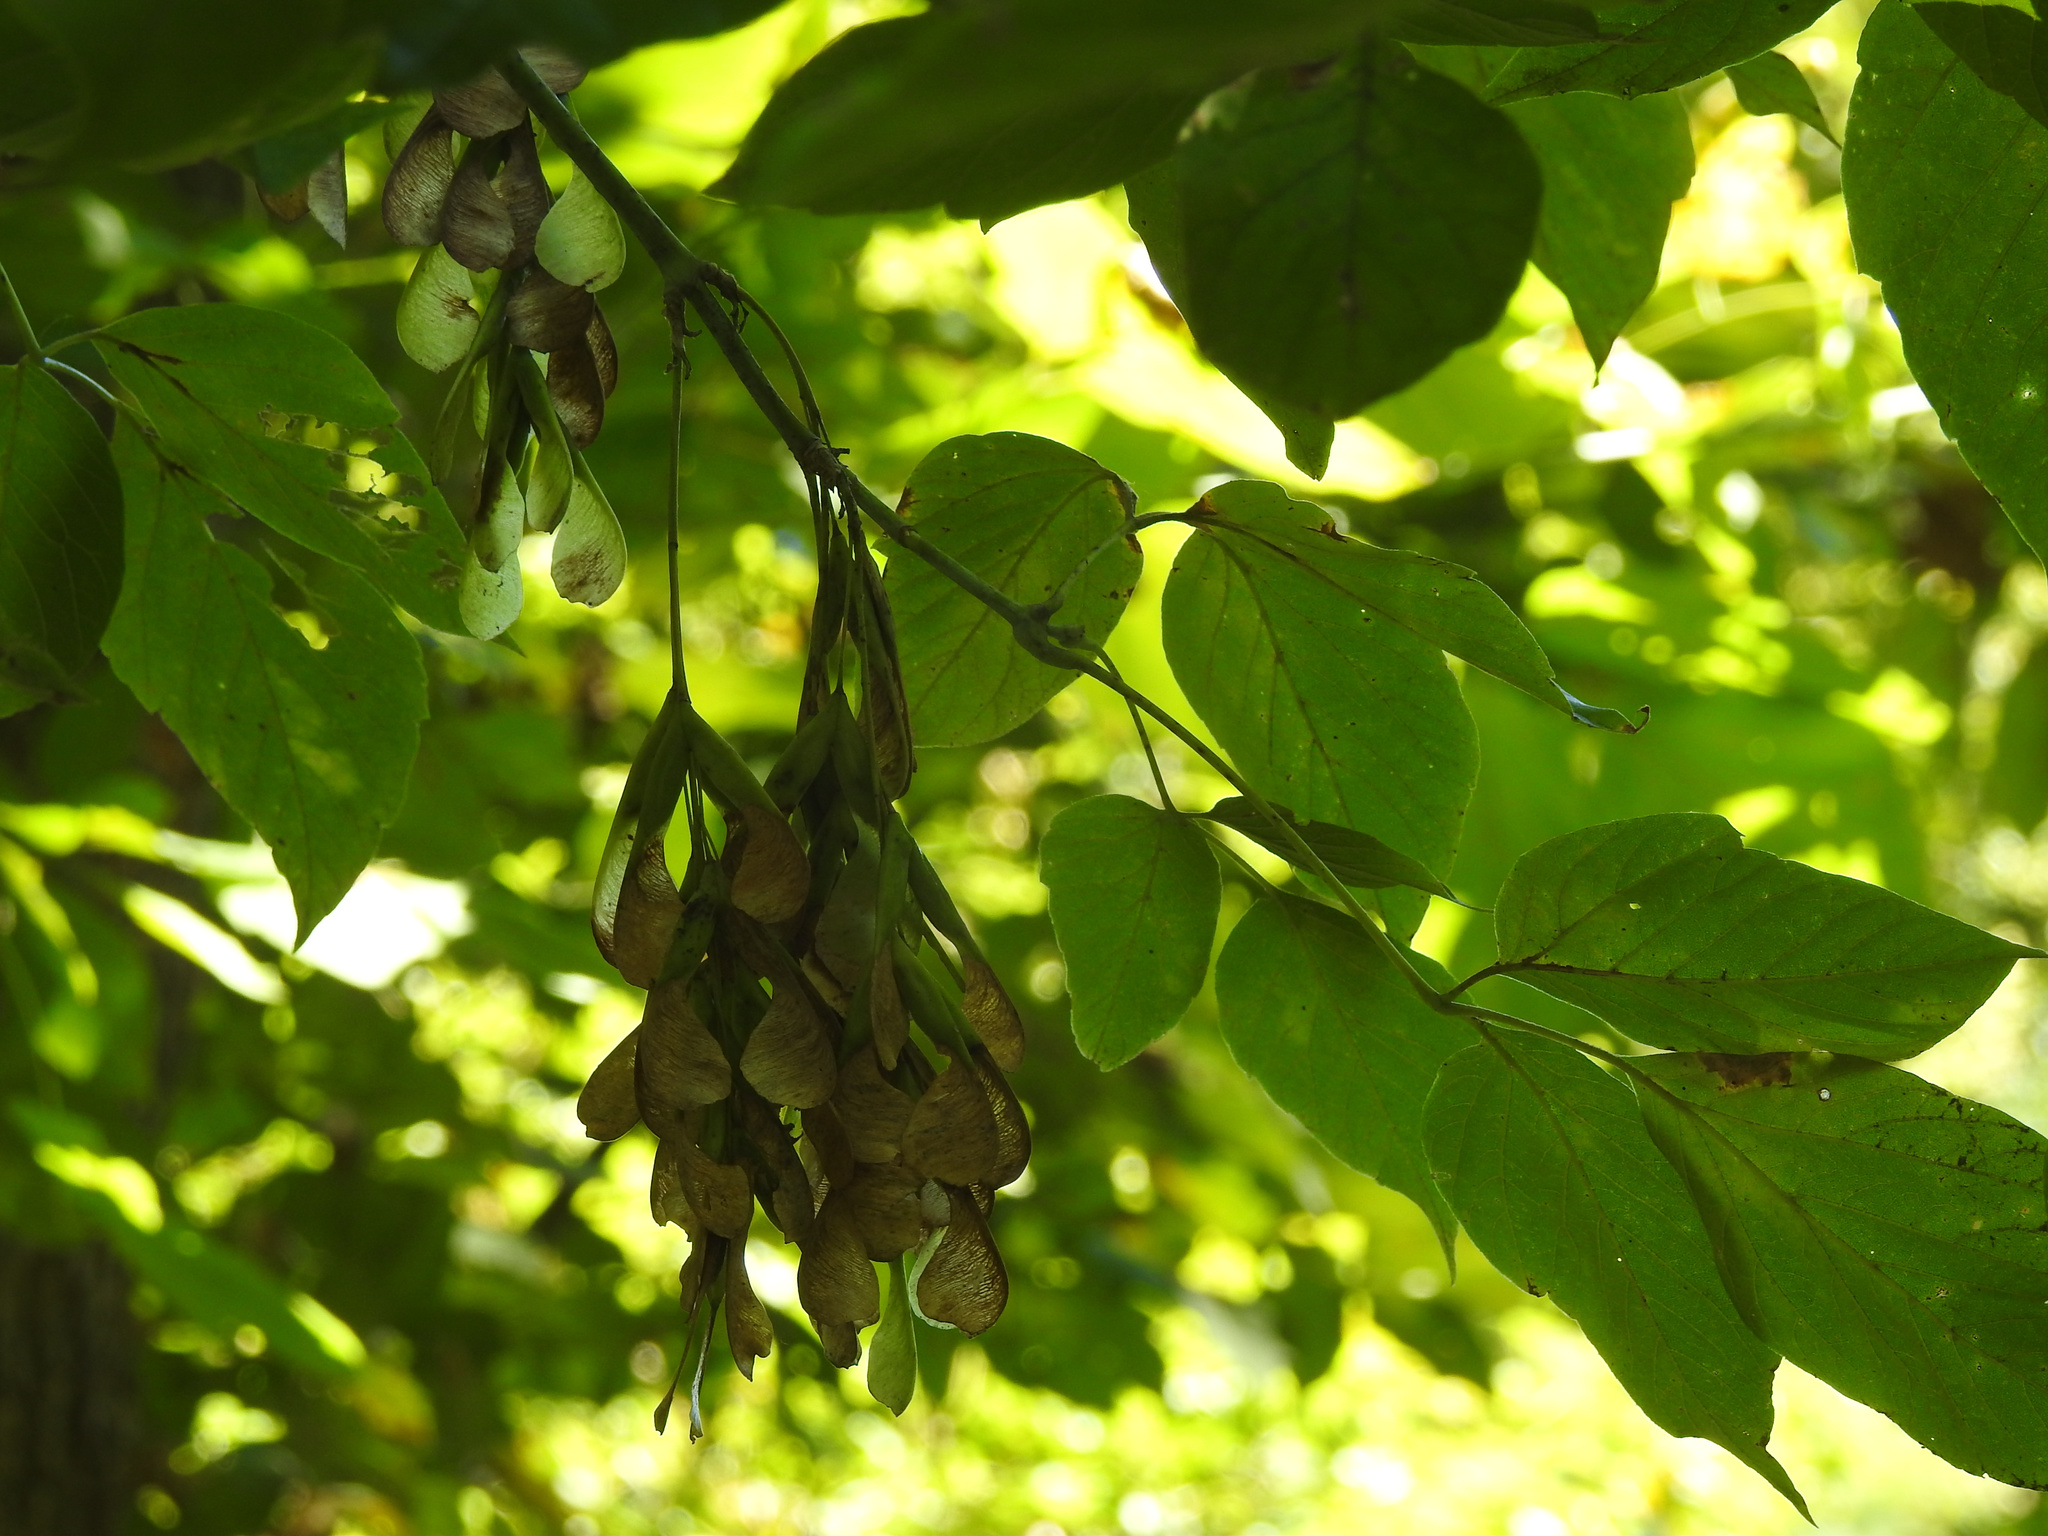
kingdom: Plantae
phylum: Tracheophyta
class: Magnoliopsida
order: Sapindales
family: Sapindaceae
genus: Acer
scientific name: Acer negundo
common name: Ashleaf maple
